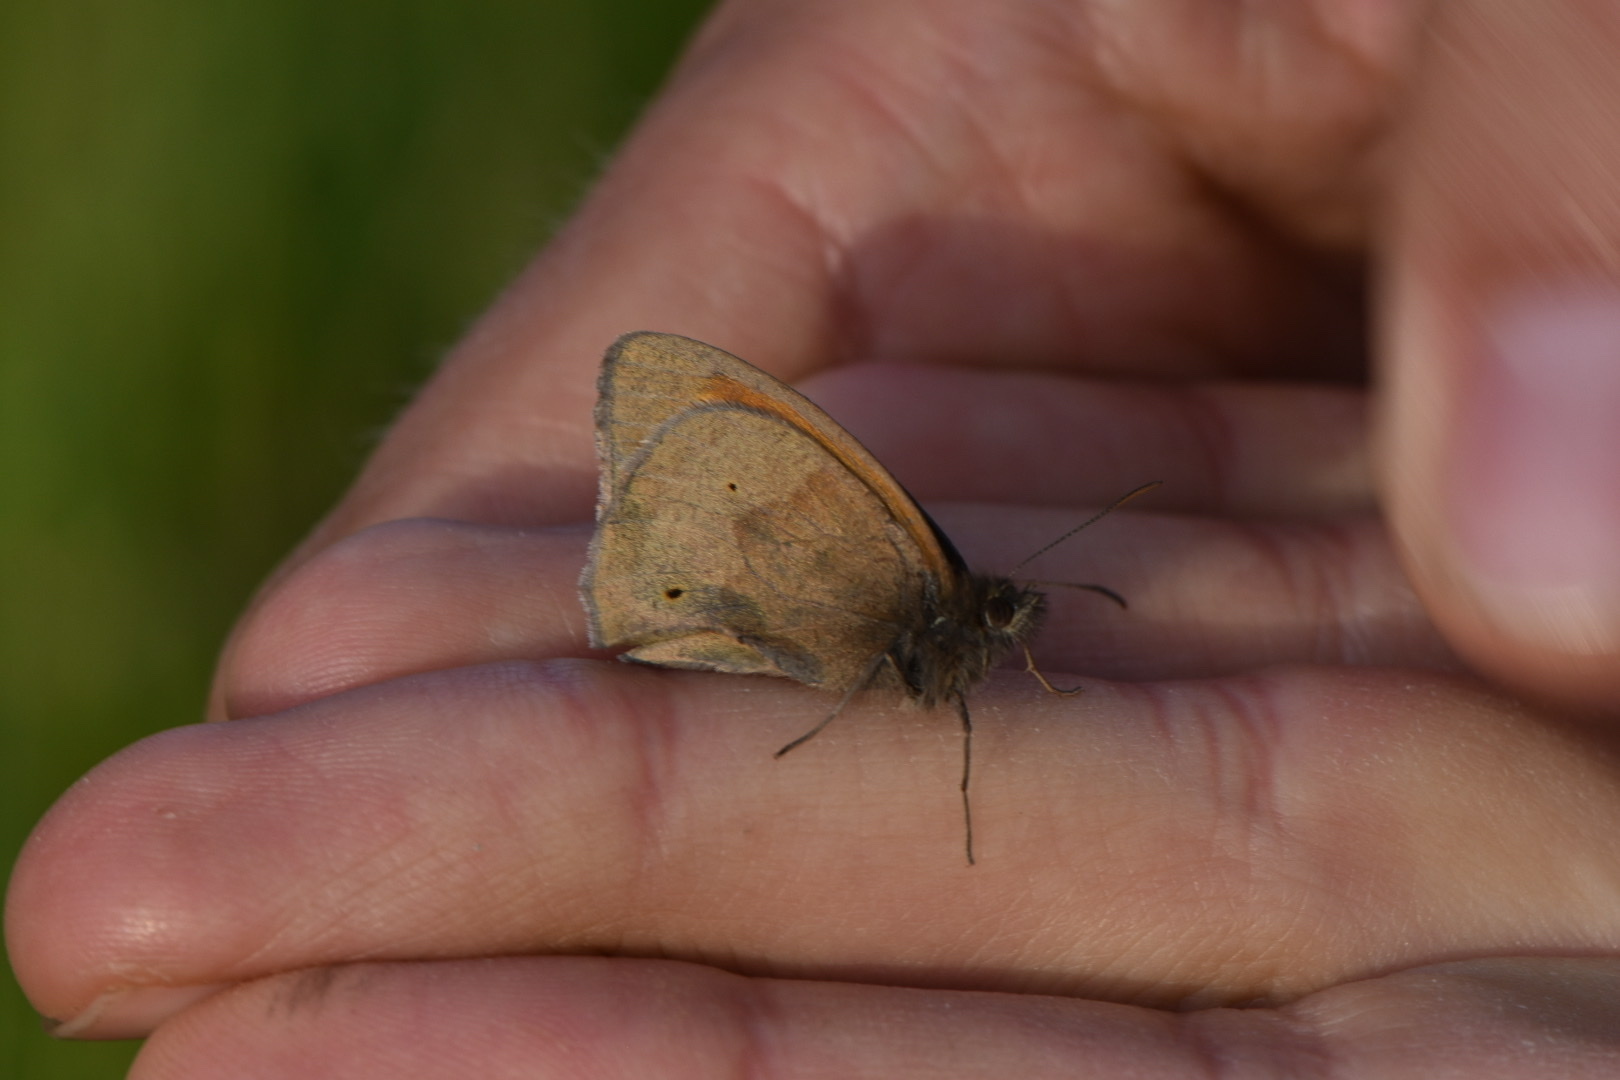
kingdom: Animalia
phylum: Arthropoda
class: Insecta
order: Lepidoptera
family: Nymphalidae
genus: Maniola
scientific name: Maniola jurtina
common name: Meadow brown
